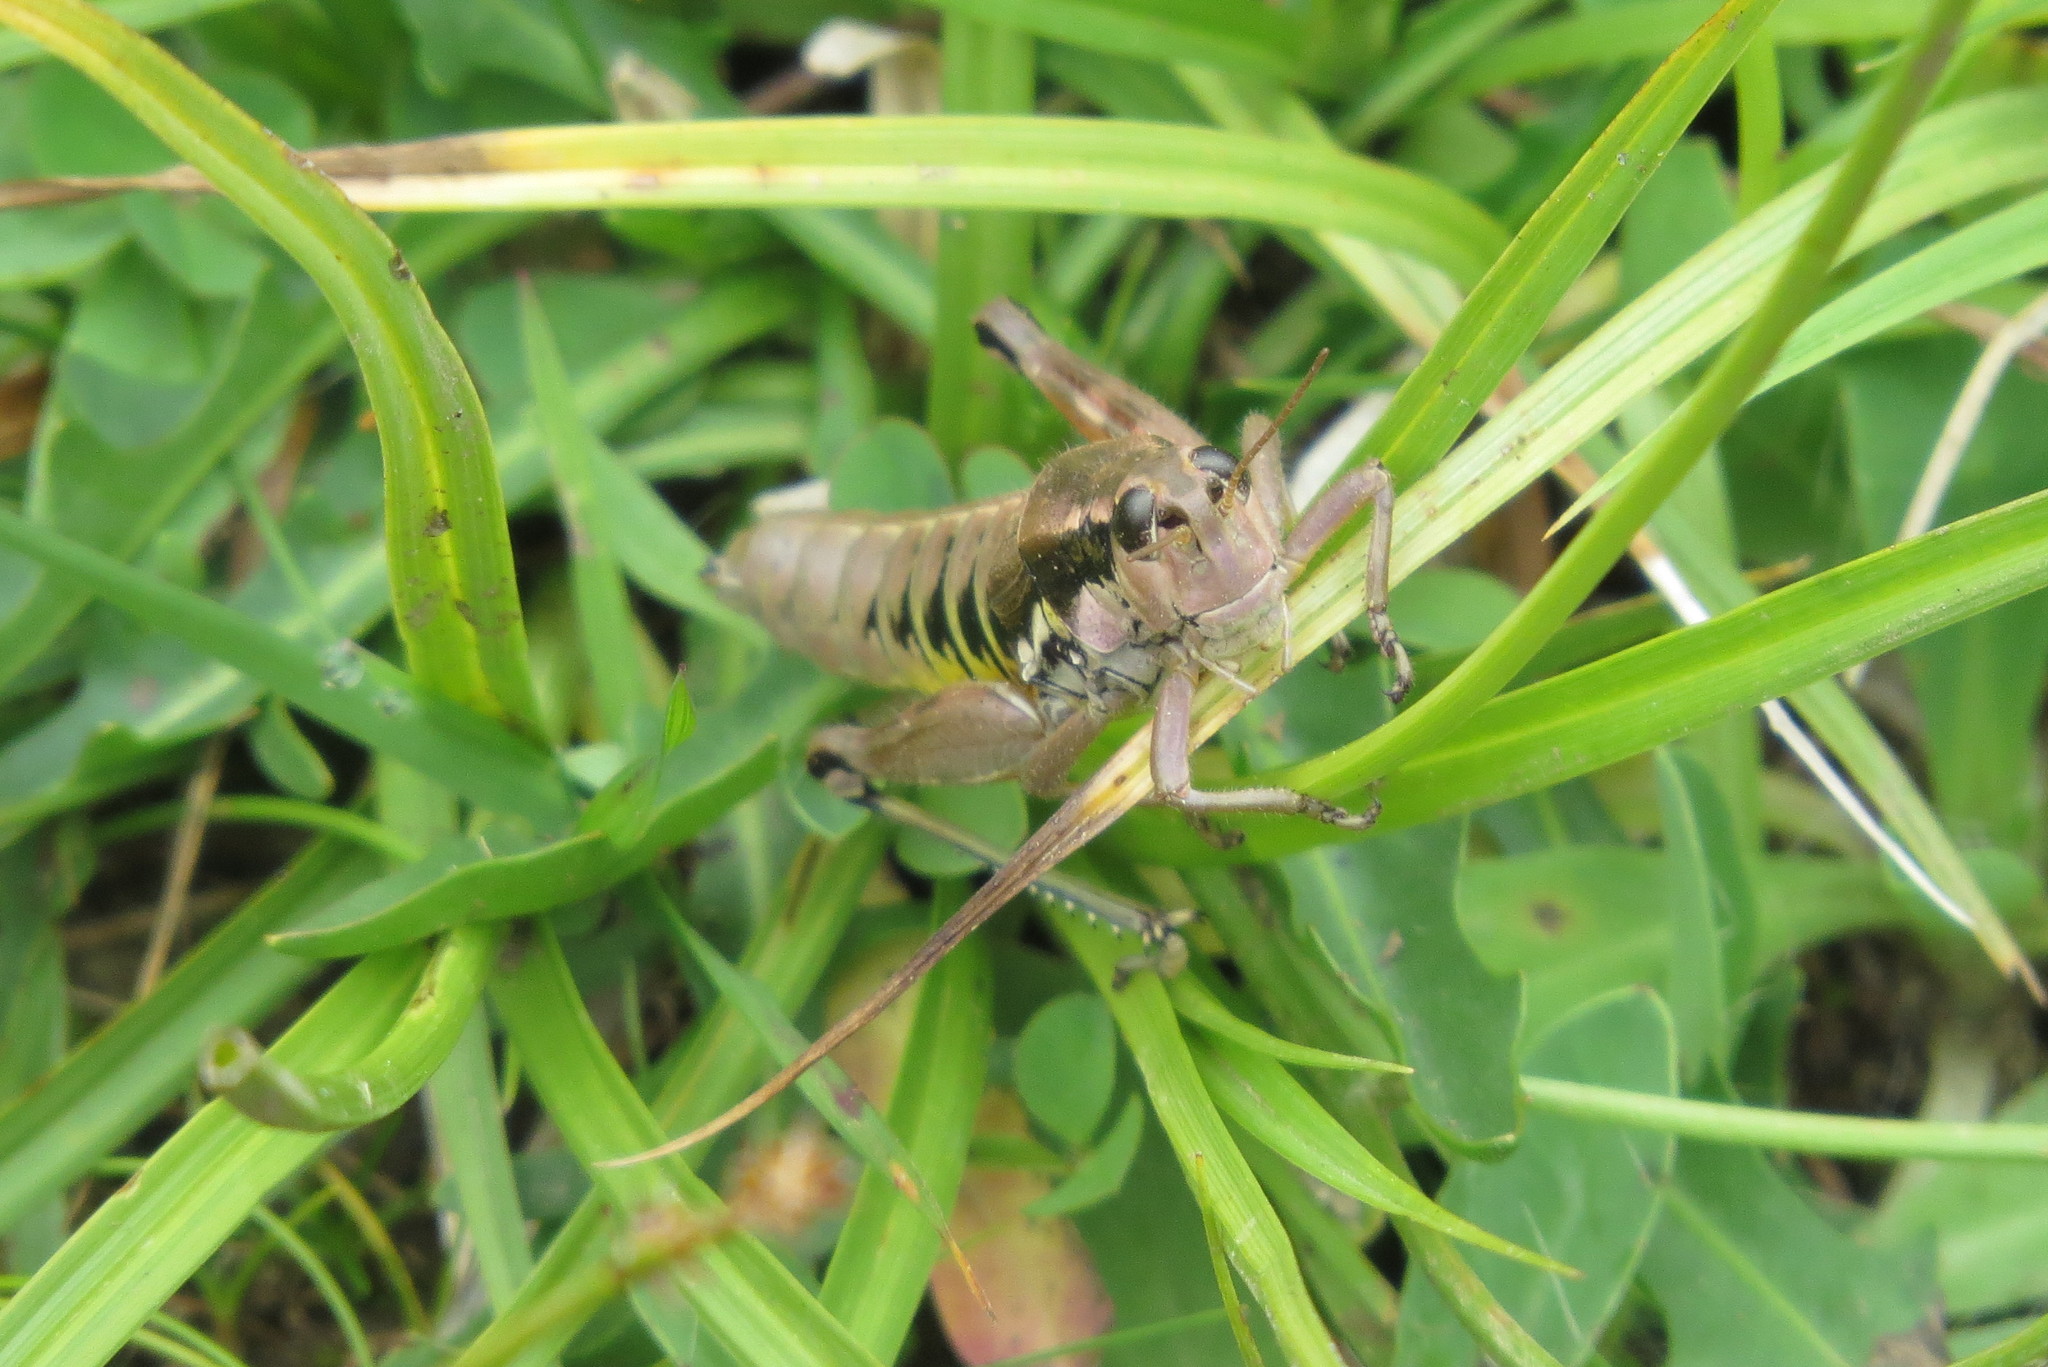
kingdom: Animalia
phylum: Arthropoda
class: Insecta
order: Orthoptera
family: Acrididae
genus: Podisma
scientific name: Podisma pedestris
